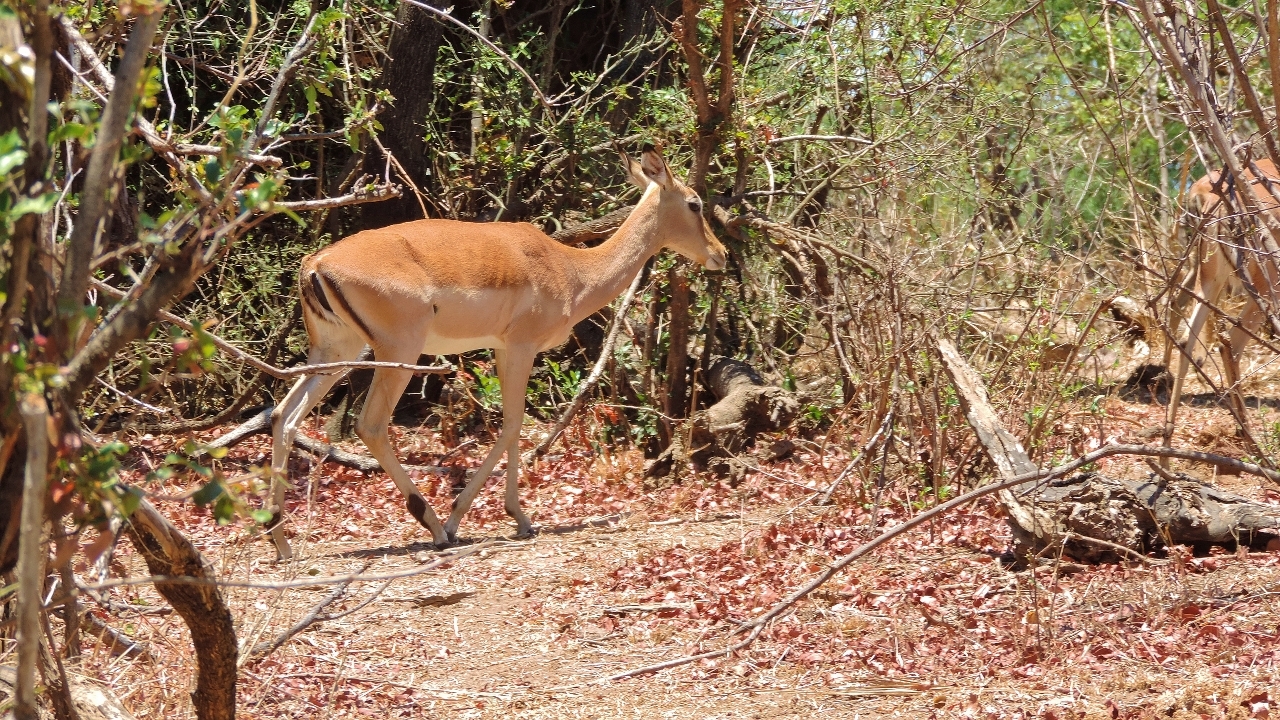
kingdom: Animalia
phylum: Chordata
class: Mammalia
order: Artiodactyla
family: Bovidae
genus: Aepyceros
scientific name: Aepyceros melampus
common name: Impala
